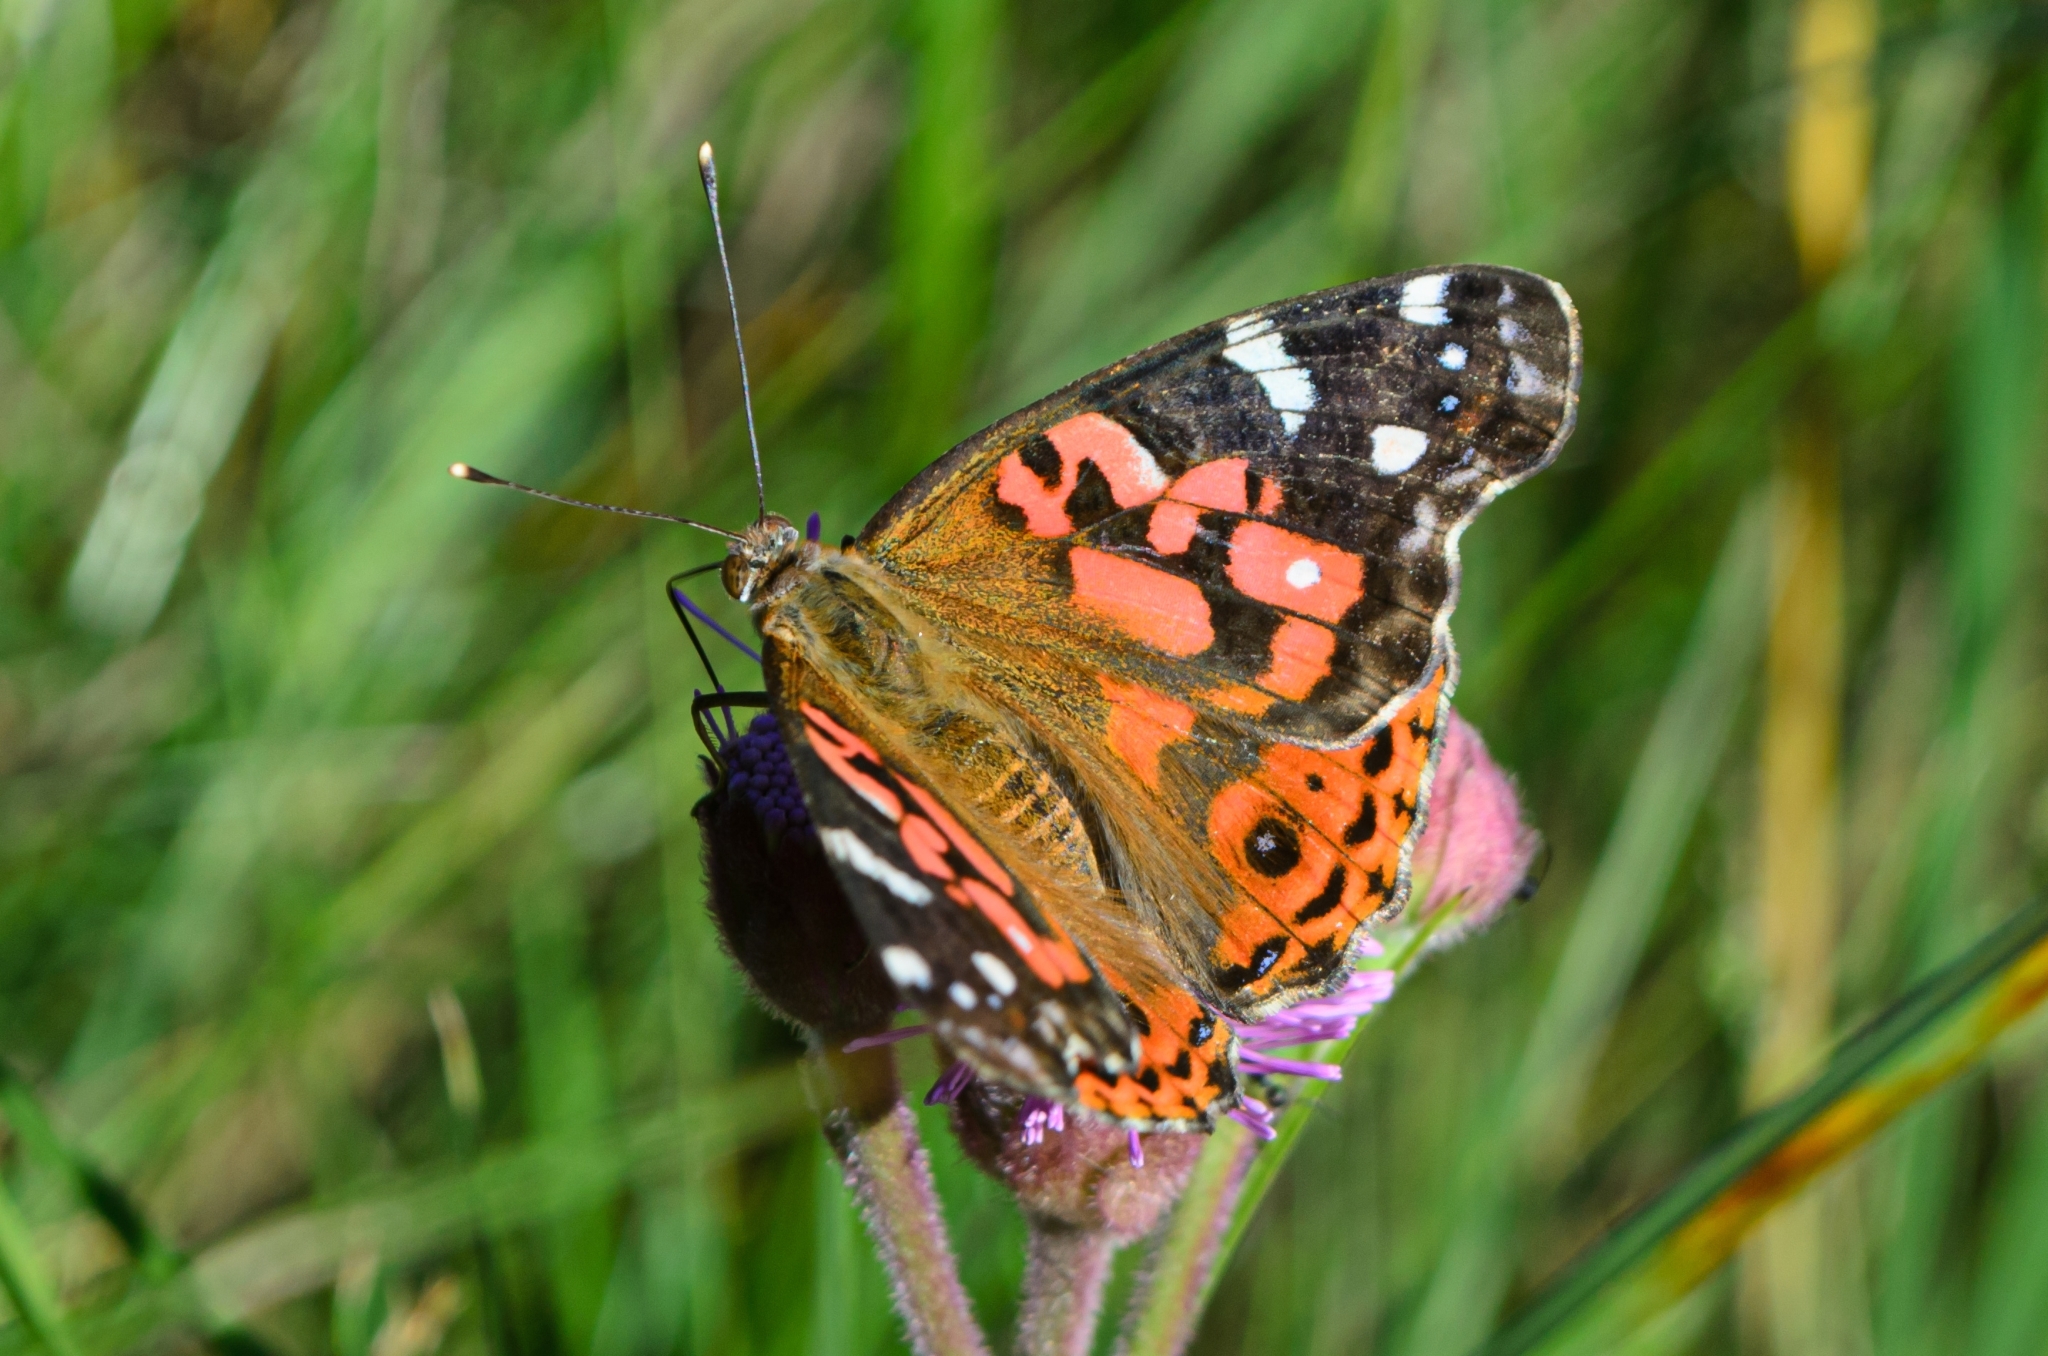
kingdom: Animalia
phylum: Arthropoda
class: Insecta
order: Lepidoptera
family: Nymphalidae
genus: Vanessa
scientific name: Vanessa braziliensis
